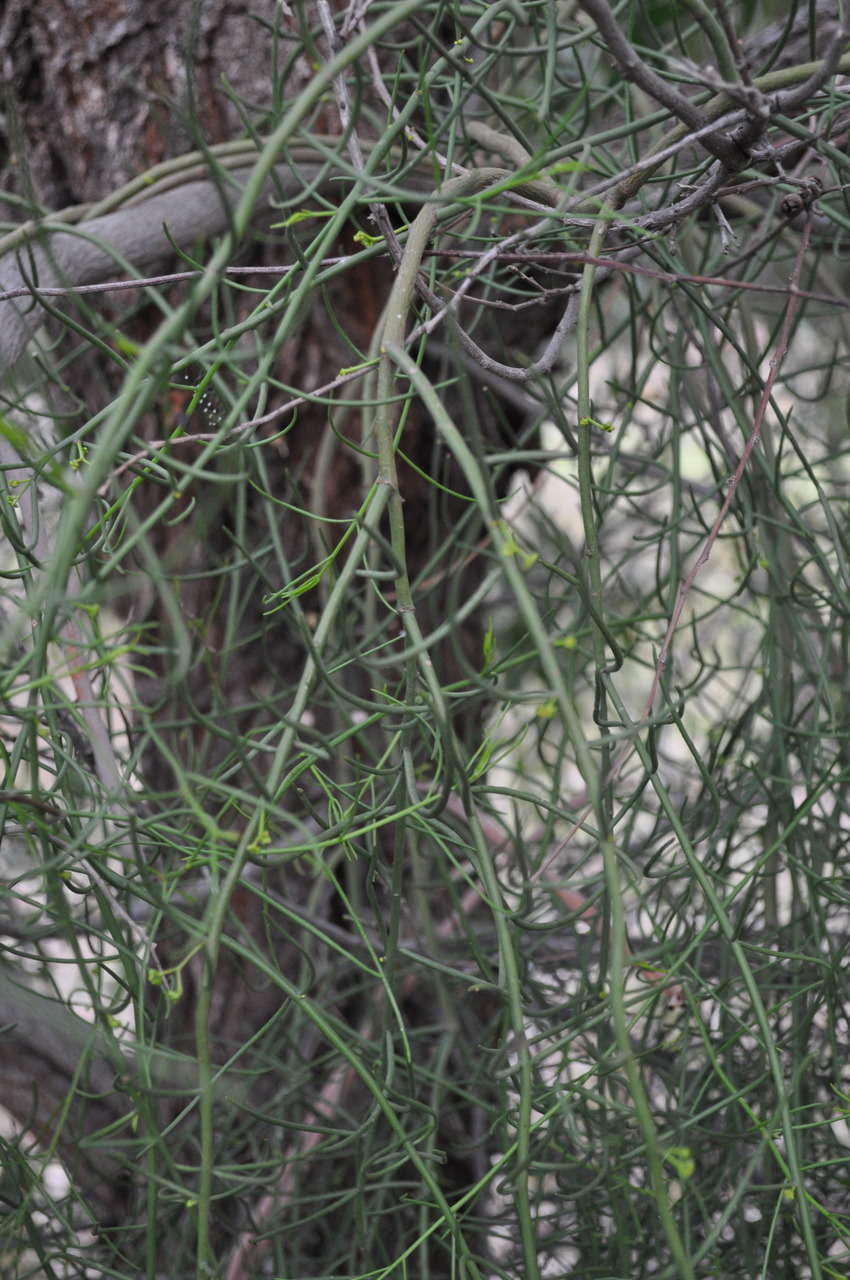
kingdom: Plantae
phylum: Tracheophyta
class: Magnoliopsida
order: Santalales
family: Loranthaceae
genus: Amyema
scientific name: Amyema preissii
